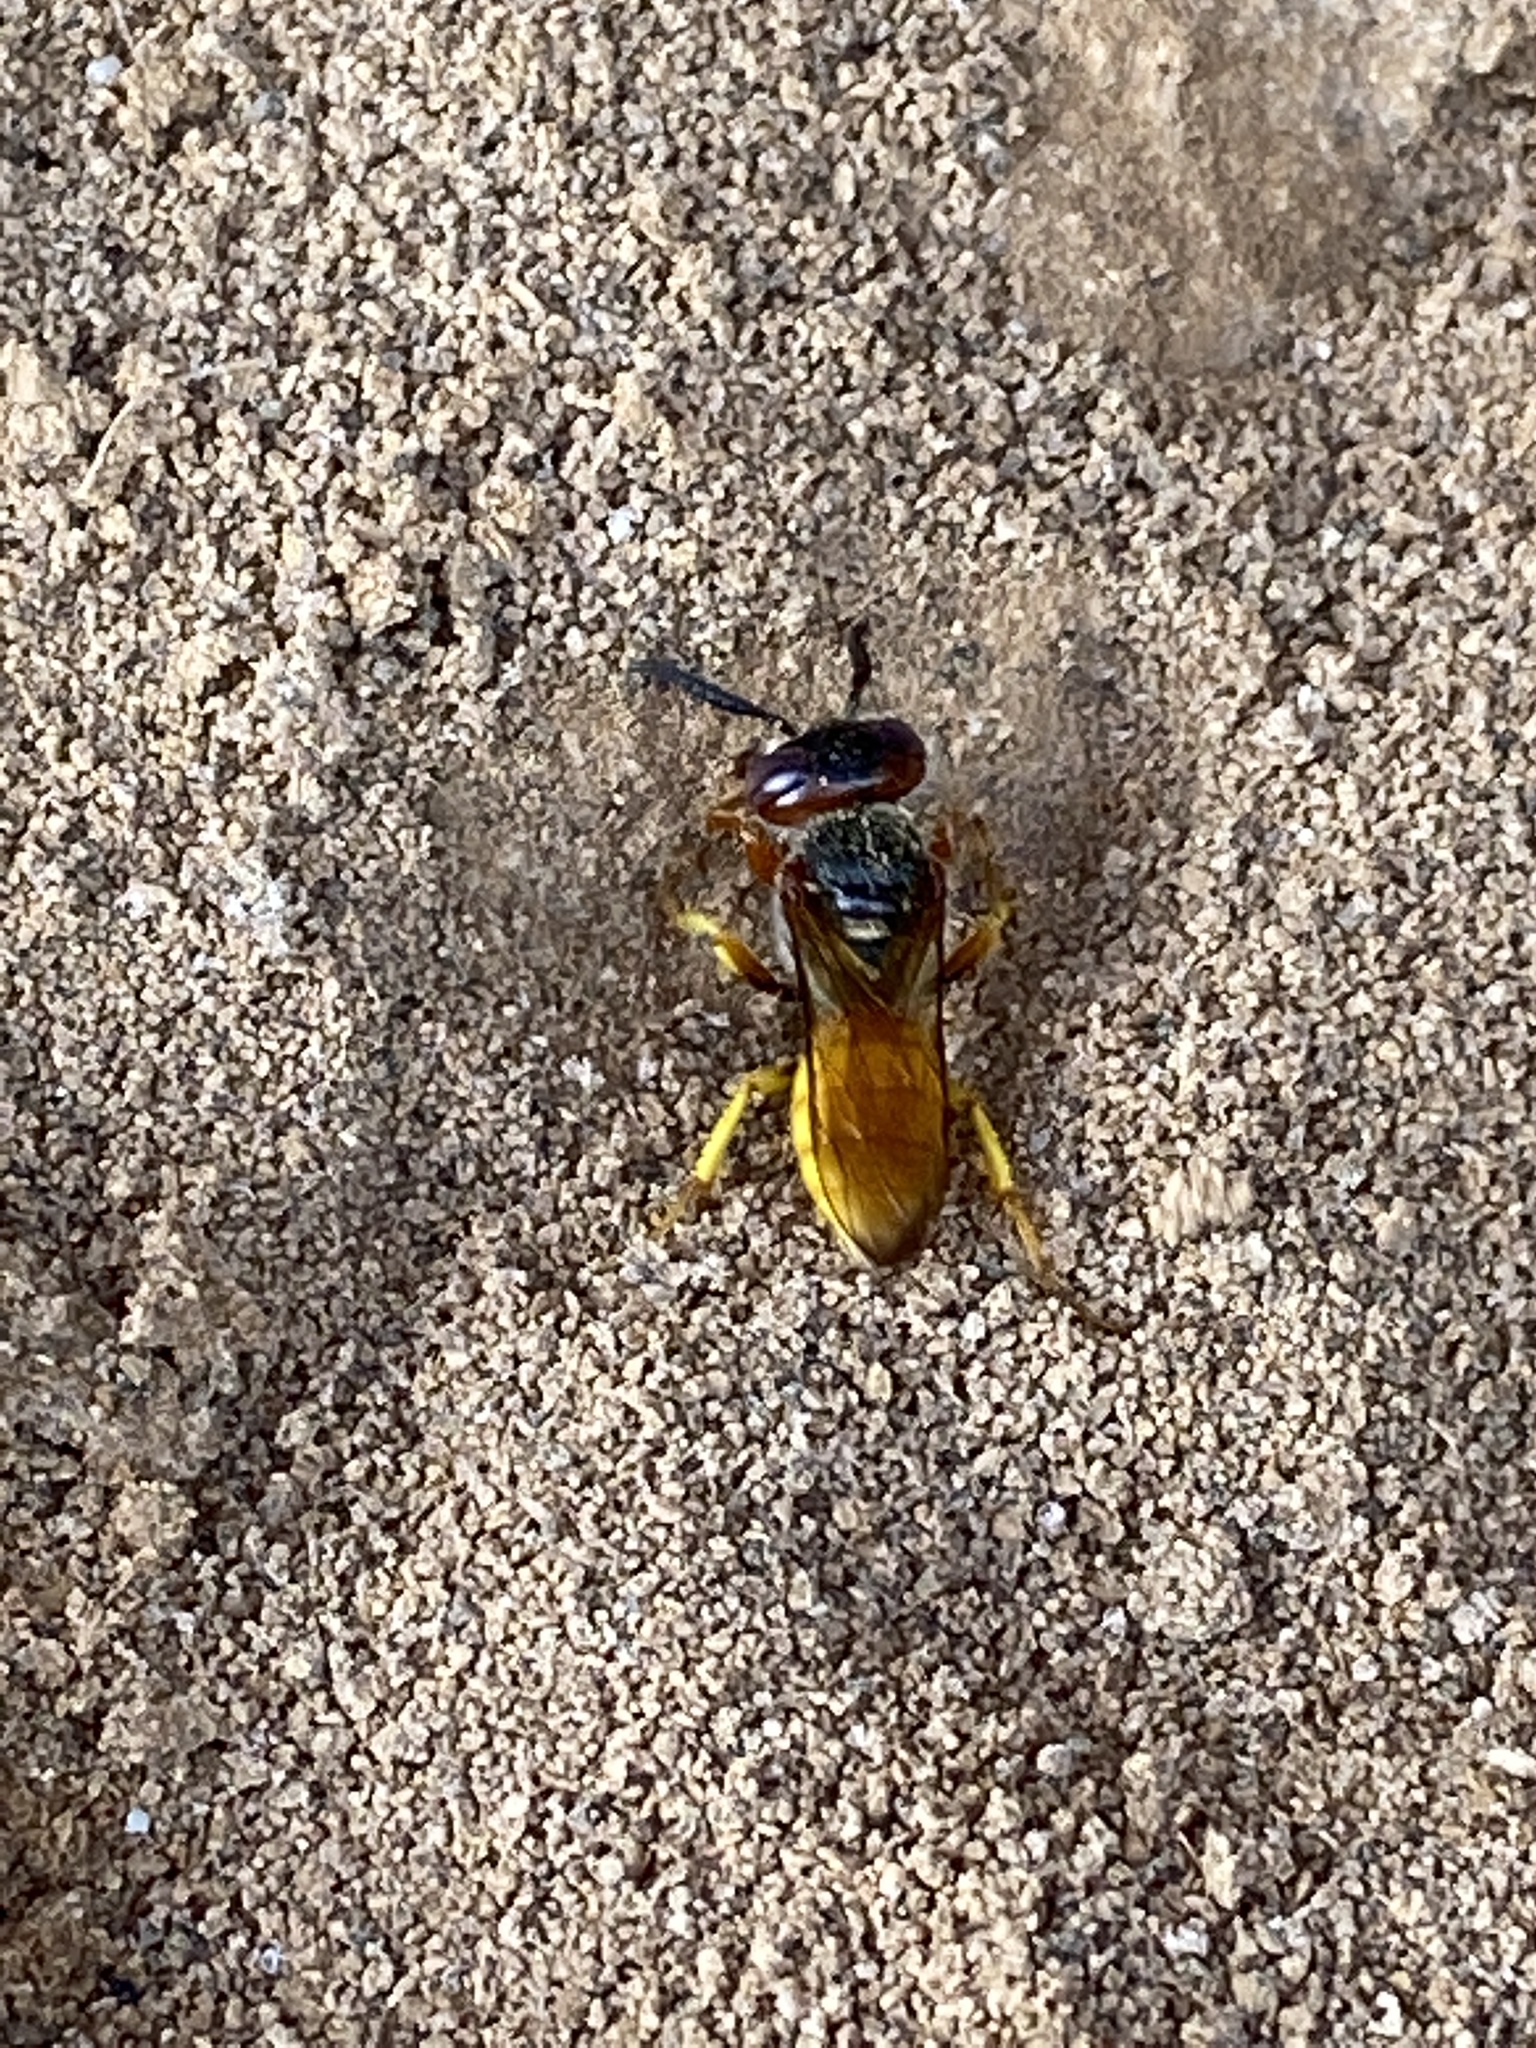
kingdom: Animalia
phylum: Arthropoda
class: Insecta
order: Hymenoptera
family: Crabronidae
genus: Philanthus
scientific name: Philanthus triangulum
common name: Bee wolf
